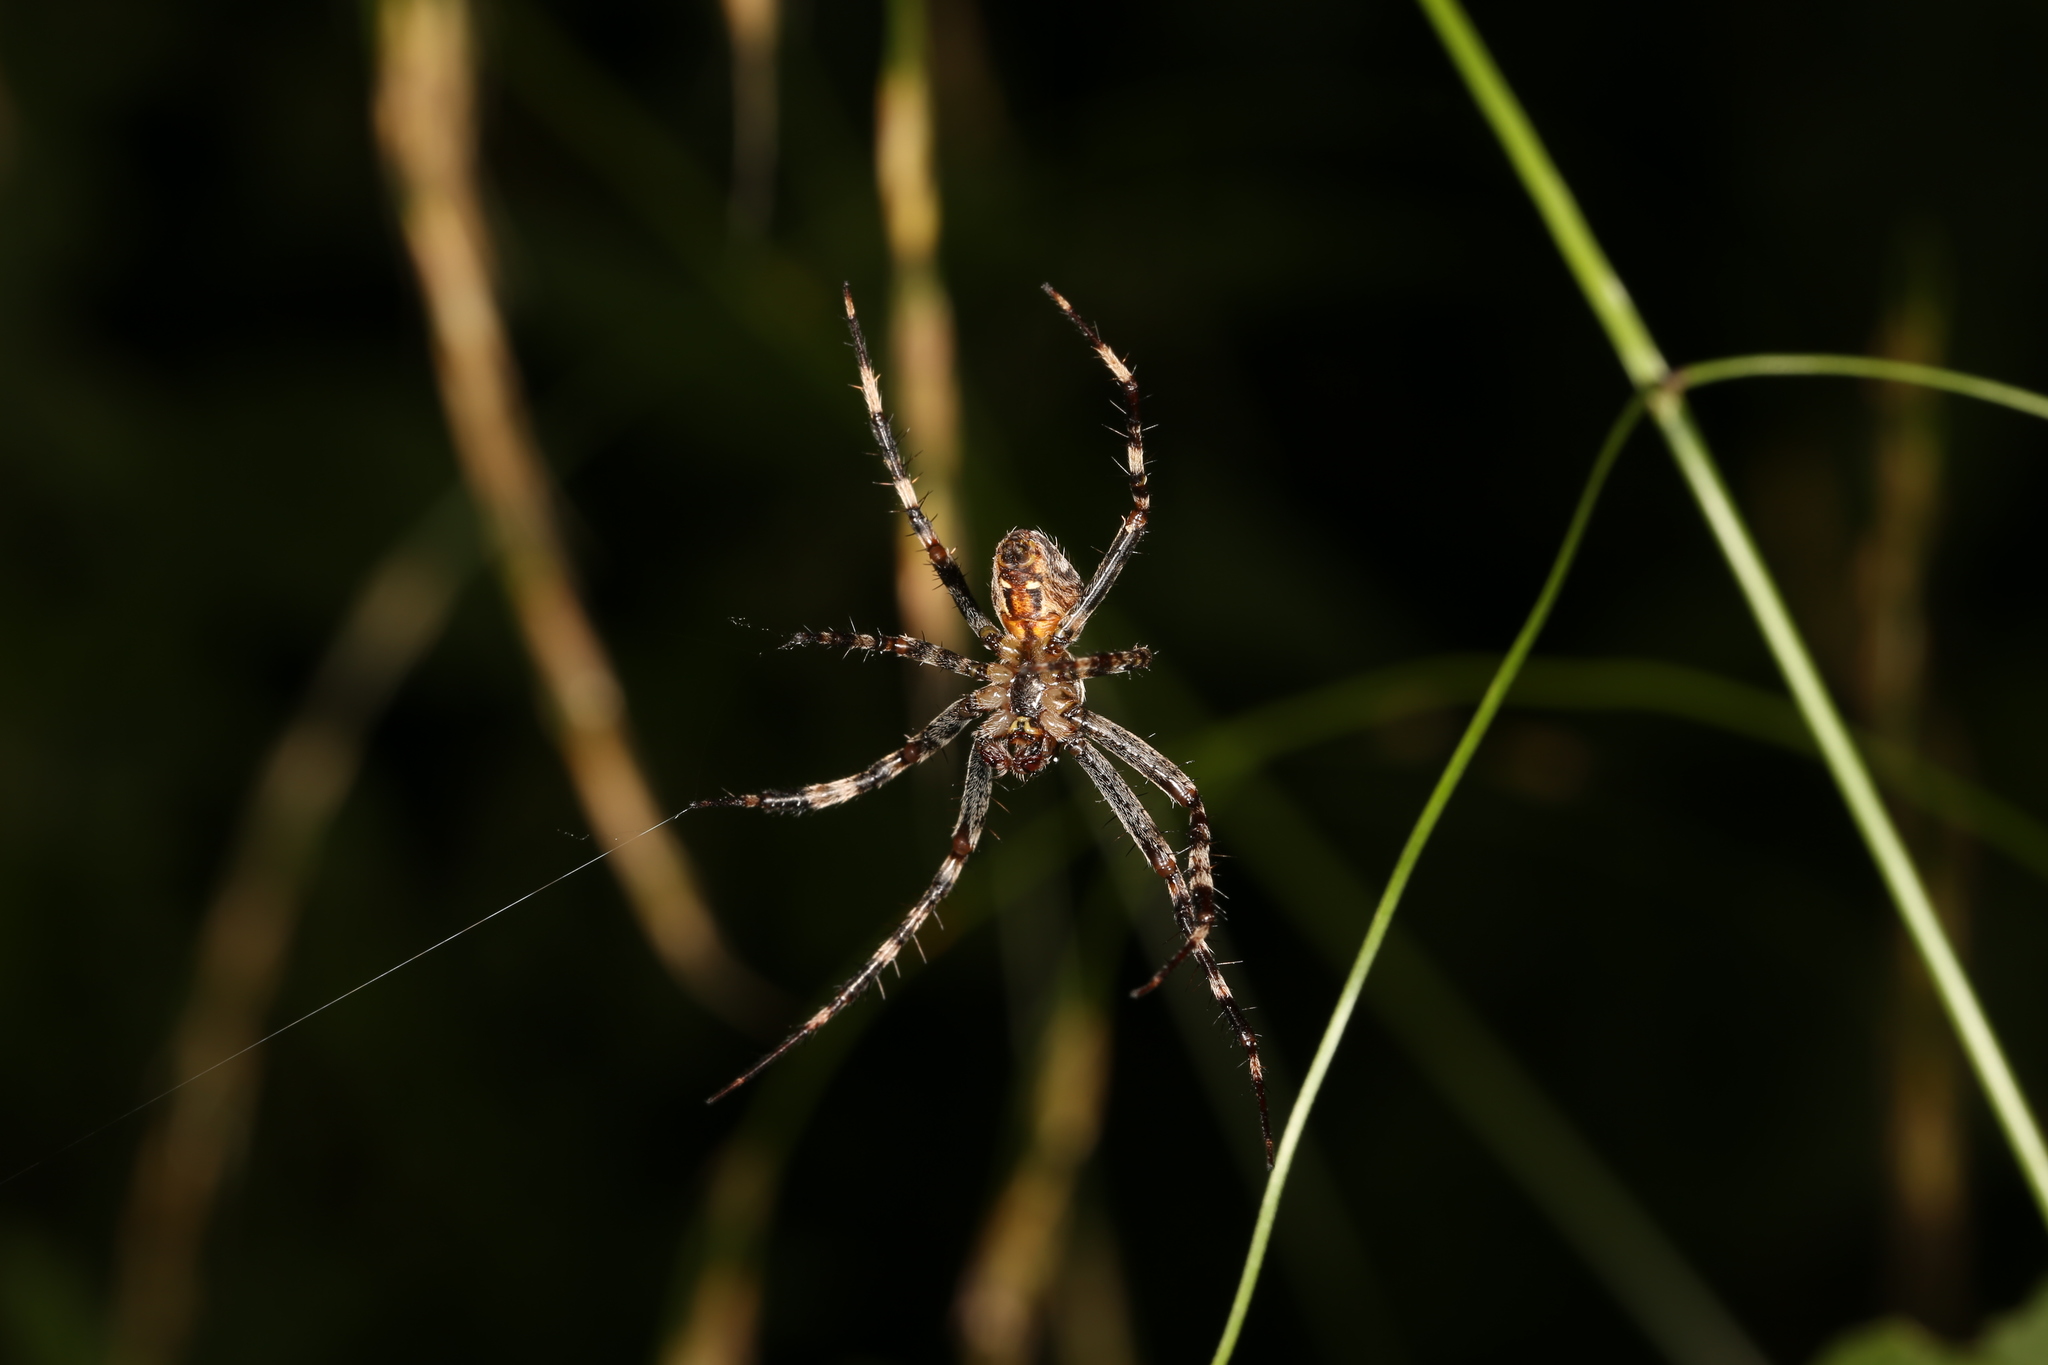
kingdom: Animalia
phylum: Arthropoda
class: Arachnida
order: Araneae
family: Araneidae
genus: Araneus
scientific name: Araneus diadematus
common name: Cross orbweaver
